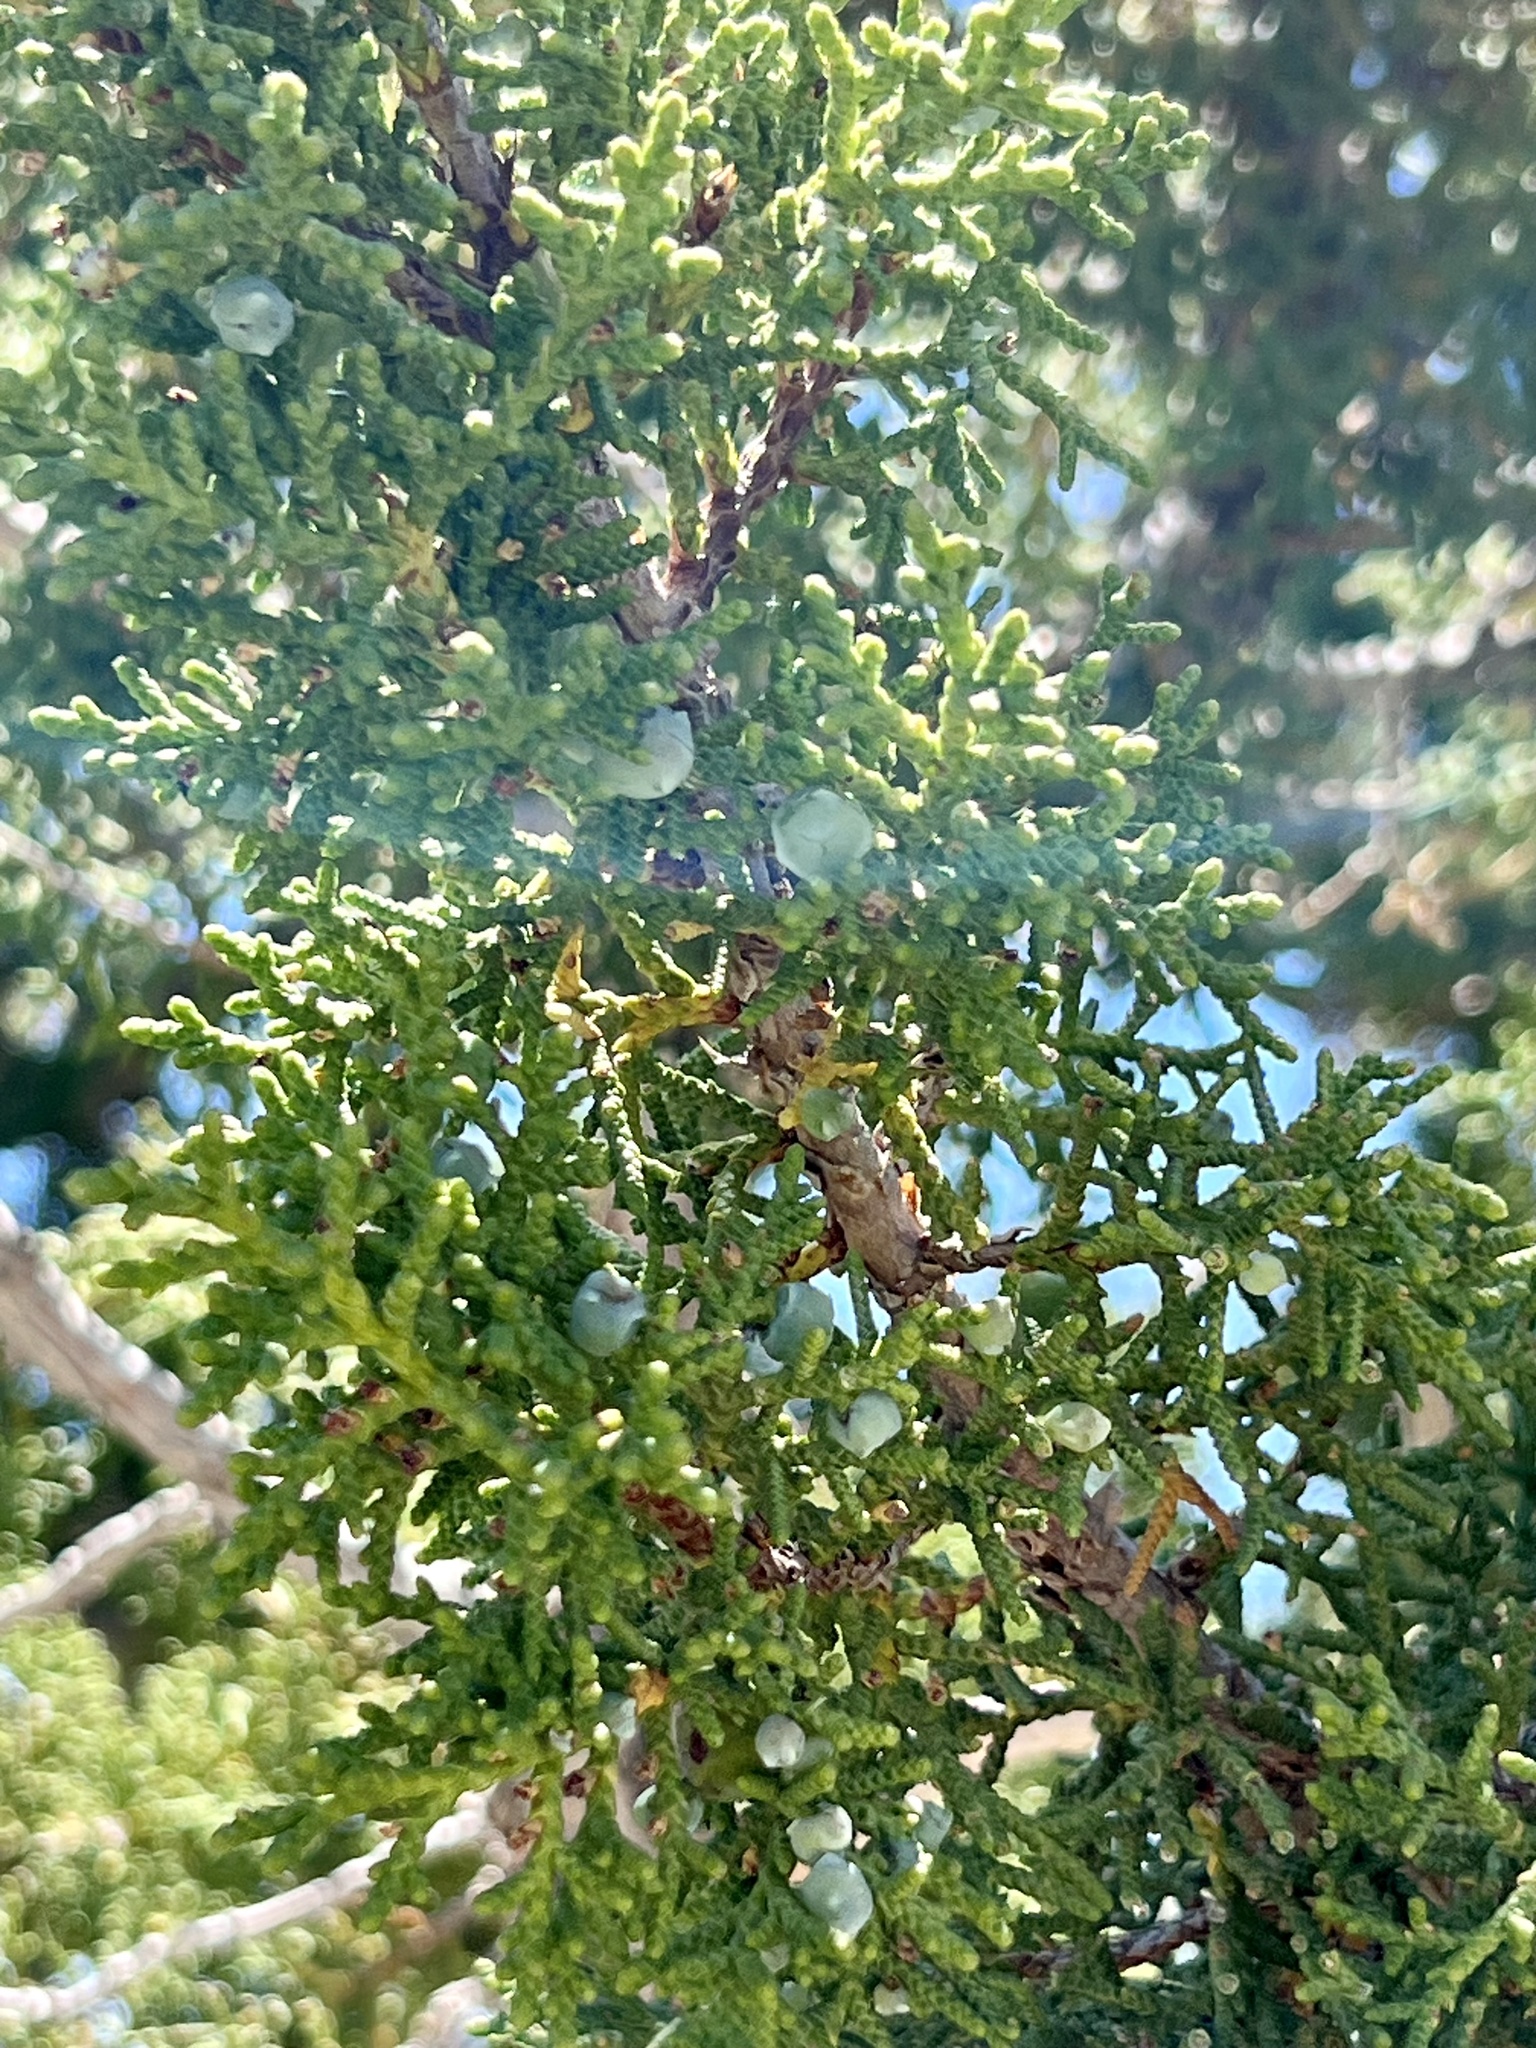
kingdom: Plantae
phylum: Tracheophyta
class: Pinopsida
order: Pinales
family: Cupressaceae
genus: Juniperus
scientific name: Juniperus osteosperma
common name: Utah juniper
